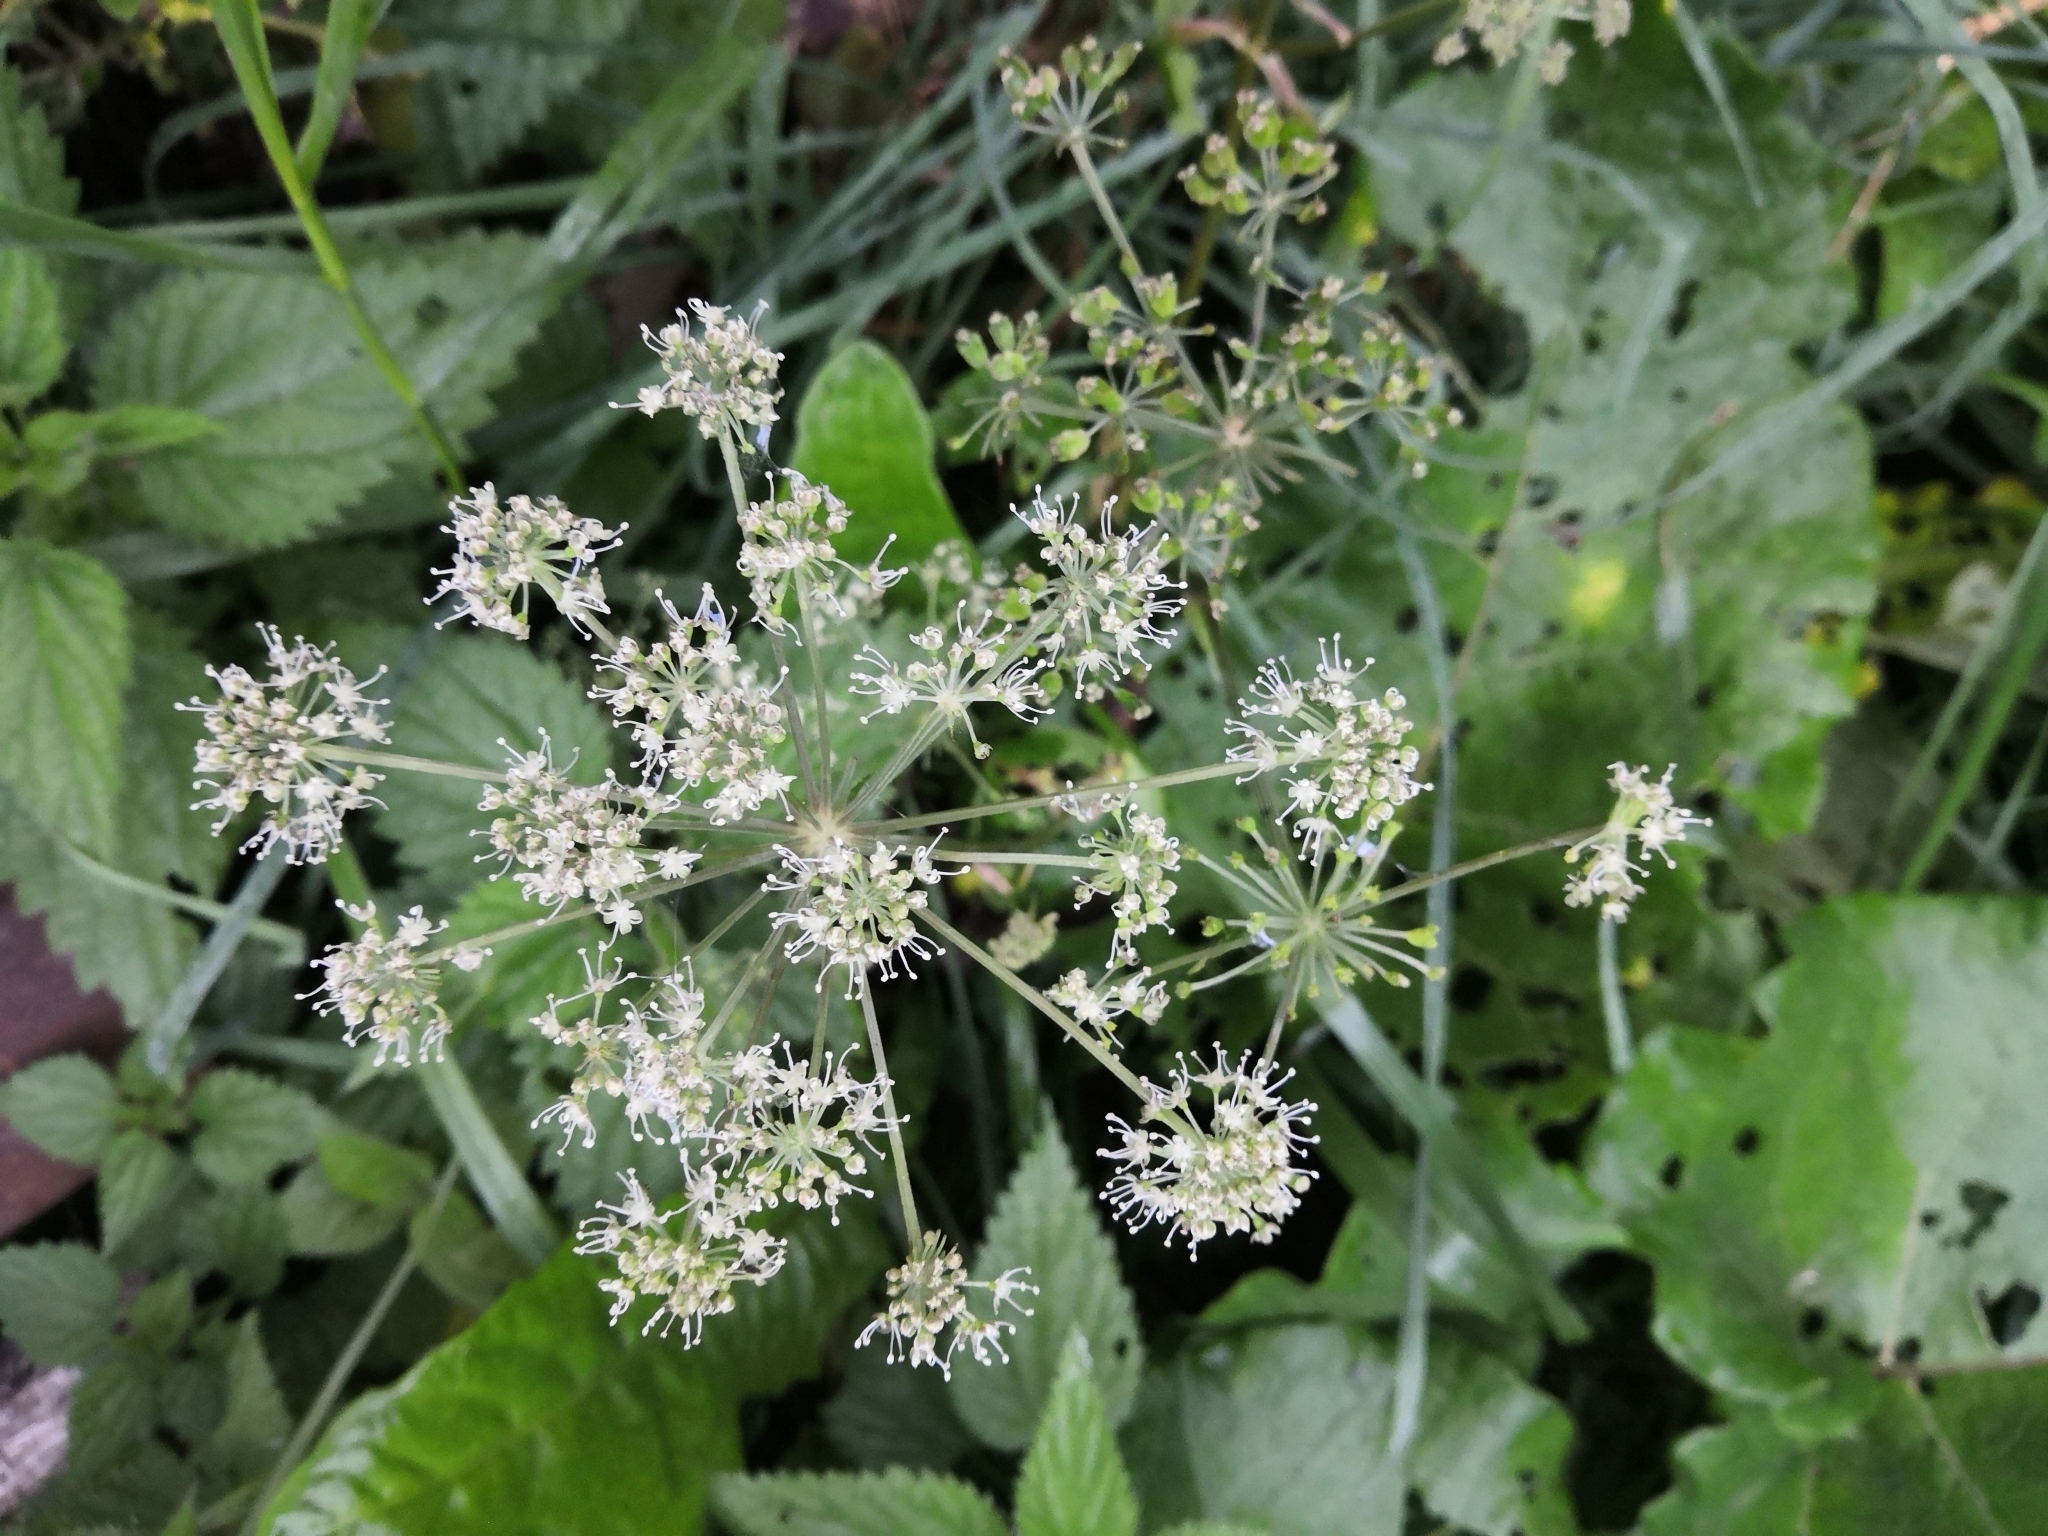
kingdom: Plantae
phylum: Tracheophyta
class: Magnoliopsida
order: Apiales
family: Apiaceae
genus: Angelica
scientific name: Angelica sylvestris
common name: Wild angelica
